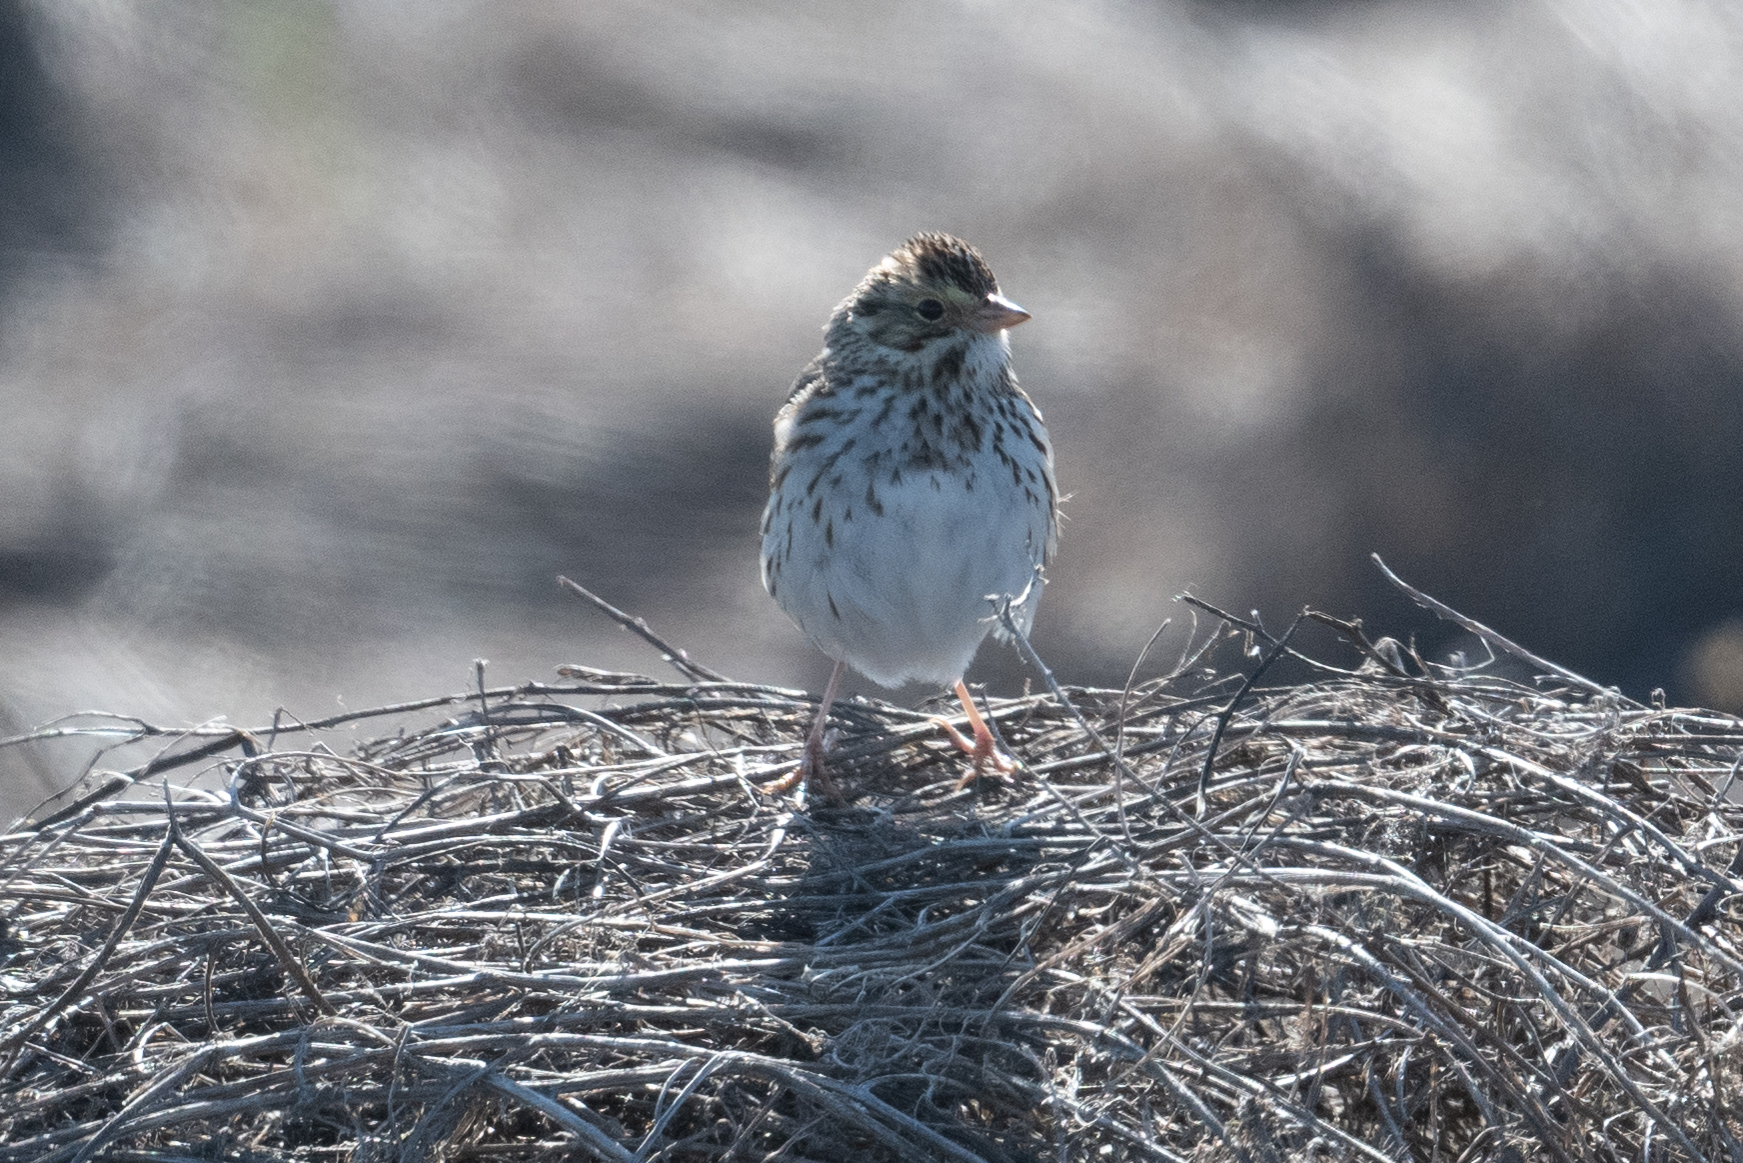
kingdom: Animalia
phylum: Chordata
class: Aves
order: Passeriformes
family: Passerellidae
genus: Passerculus
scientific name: Passerculus sandwichensis
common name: Savannah sparrow
